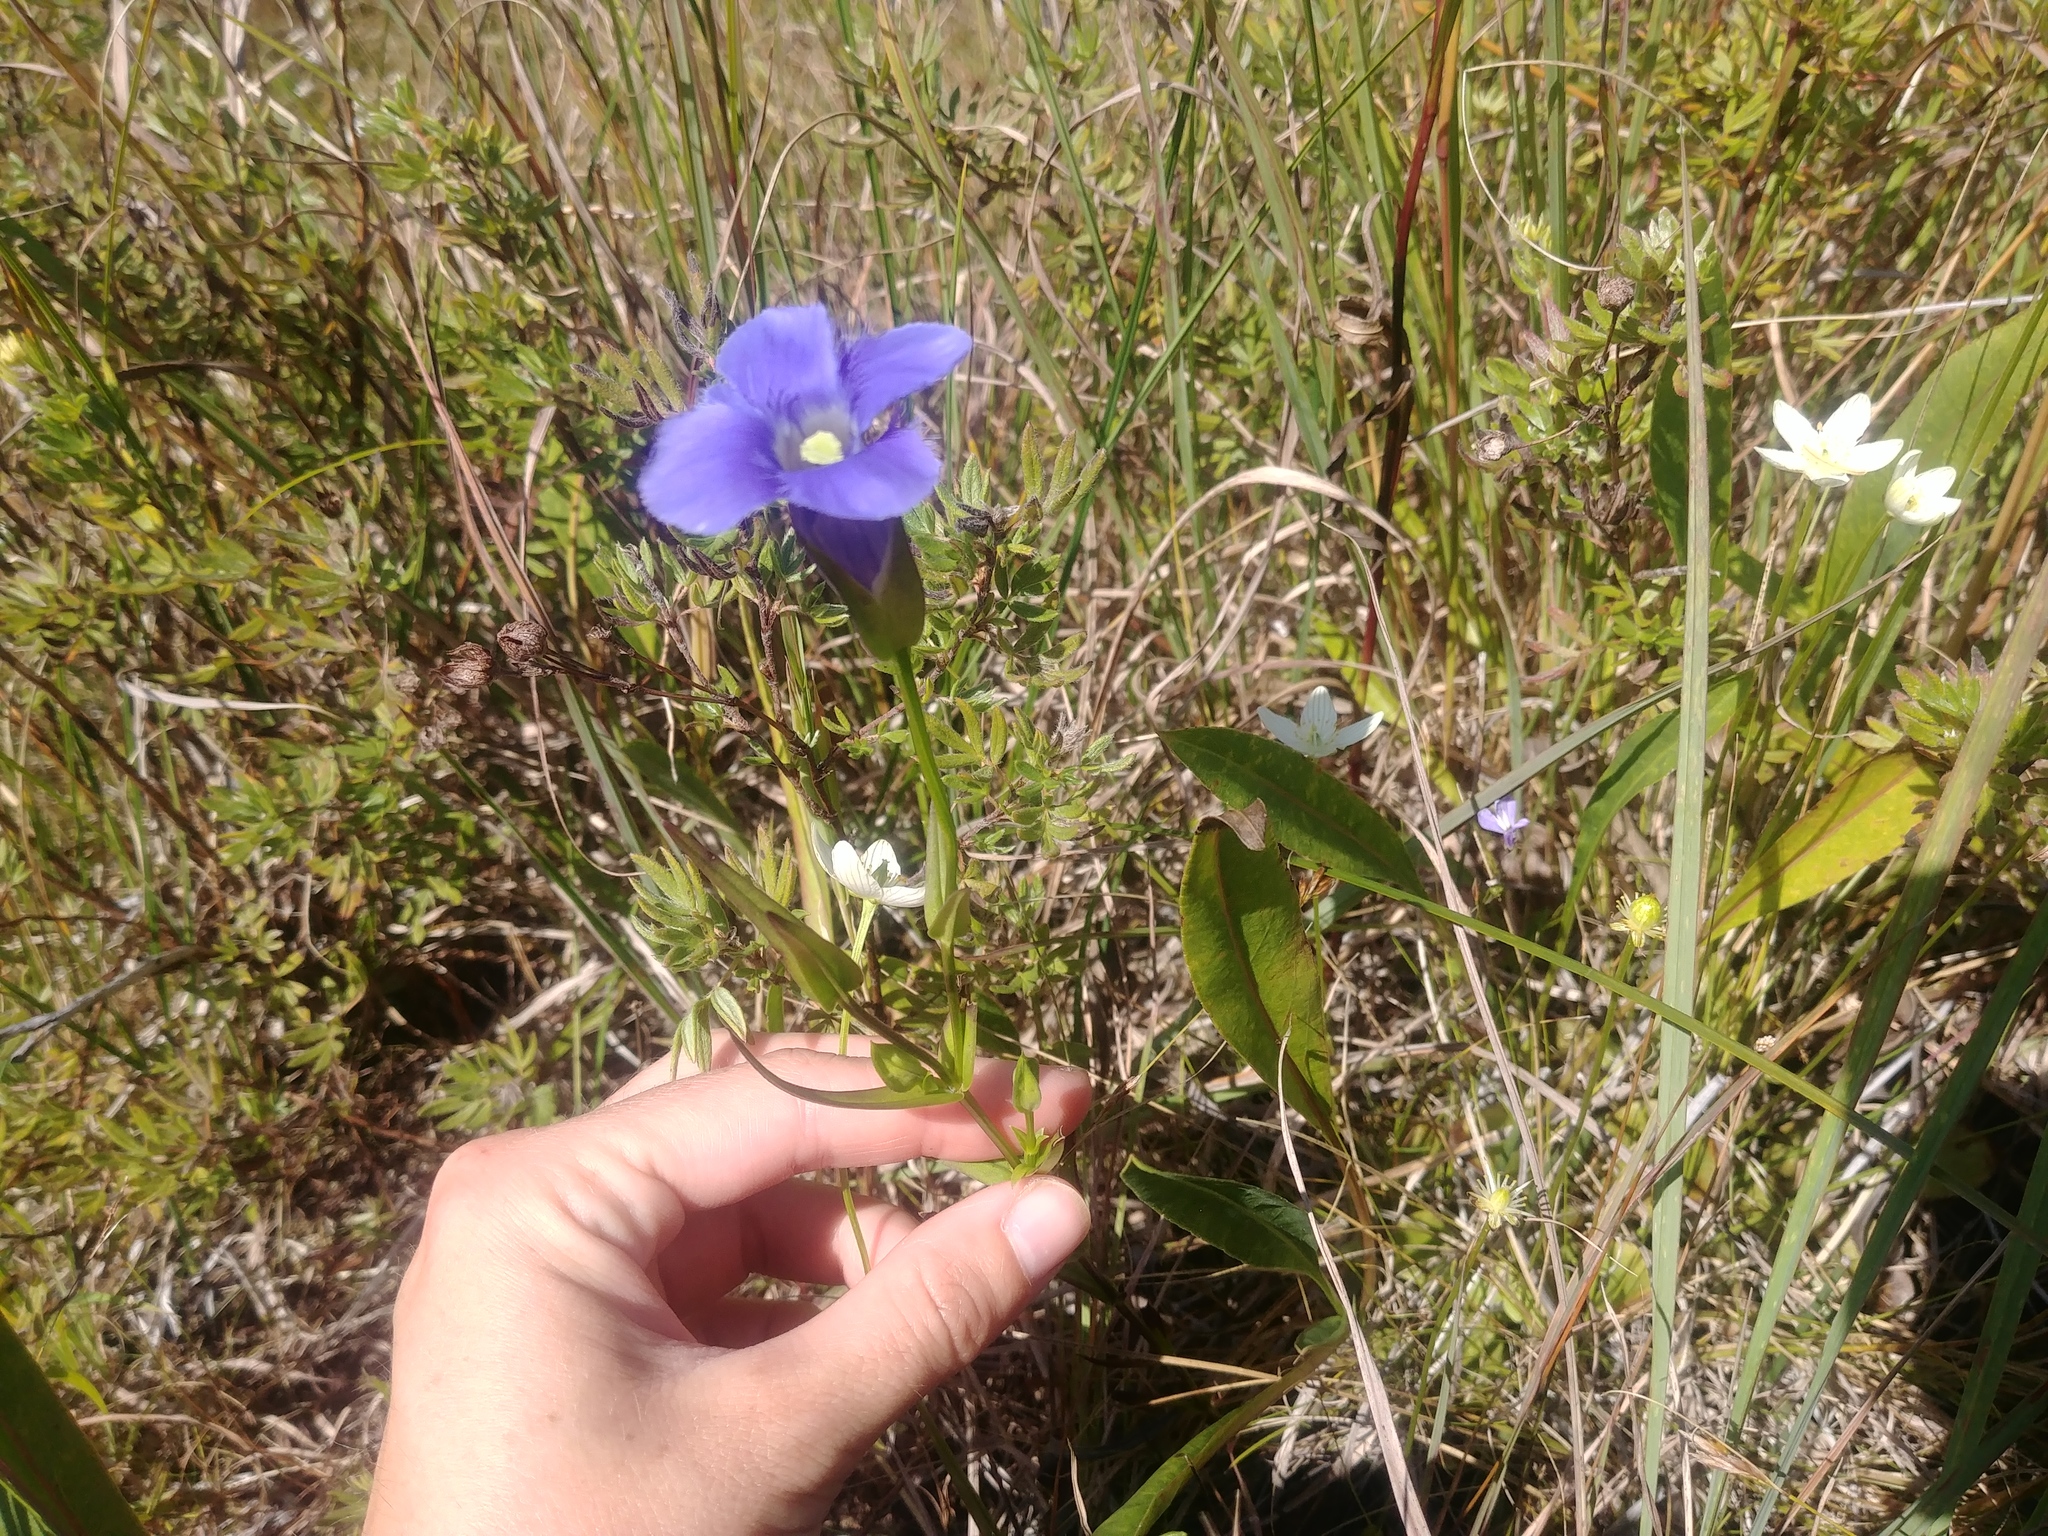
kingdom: Plantae
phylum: Tracheophyta
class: Magnoliopsida
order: Gentianales
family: Gentianaceae
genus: Gentianopsis
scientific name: Gentianopsis virgata
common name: Lesser fringed-gentian
